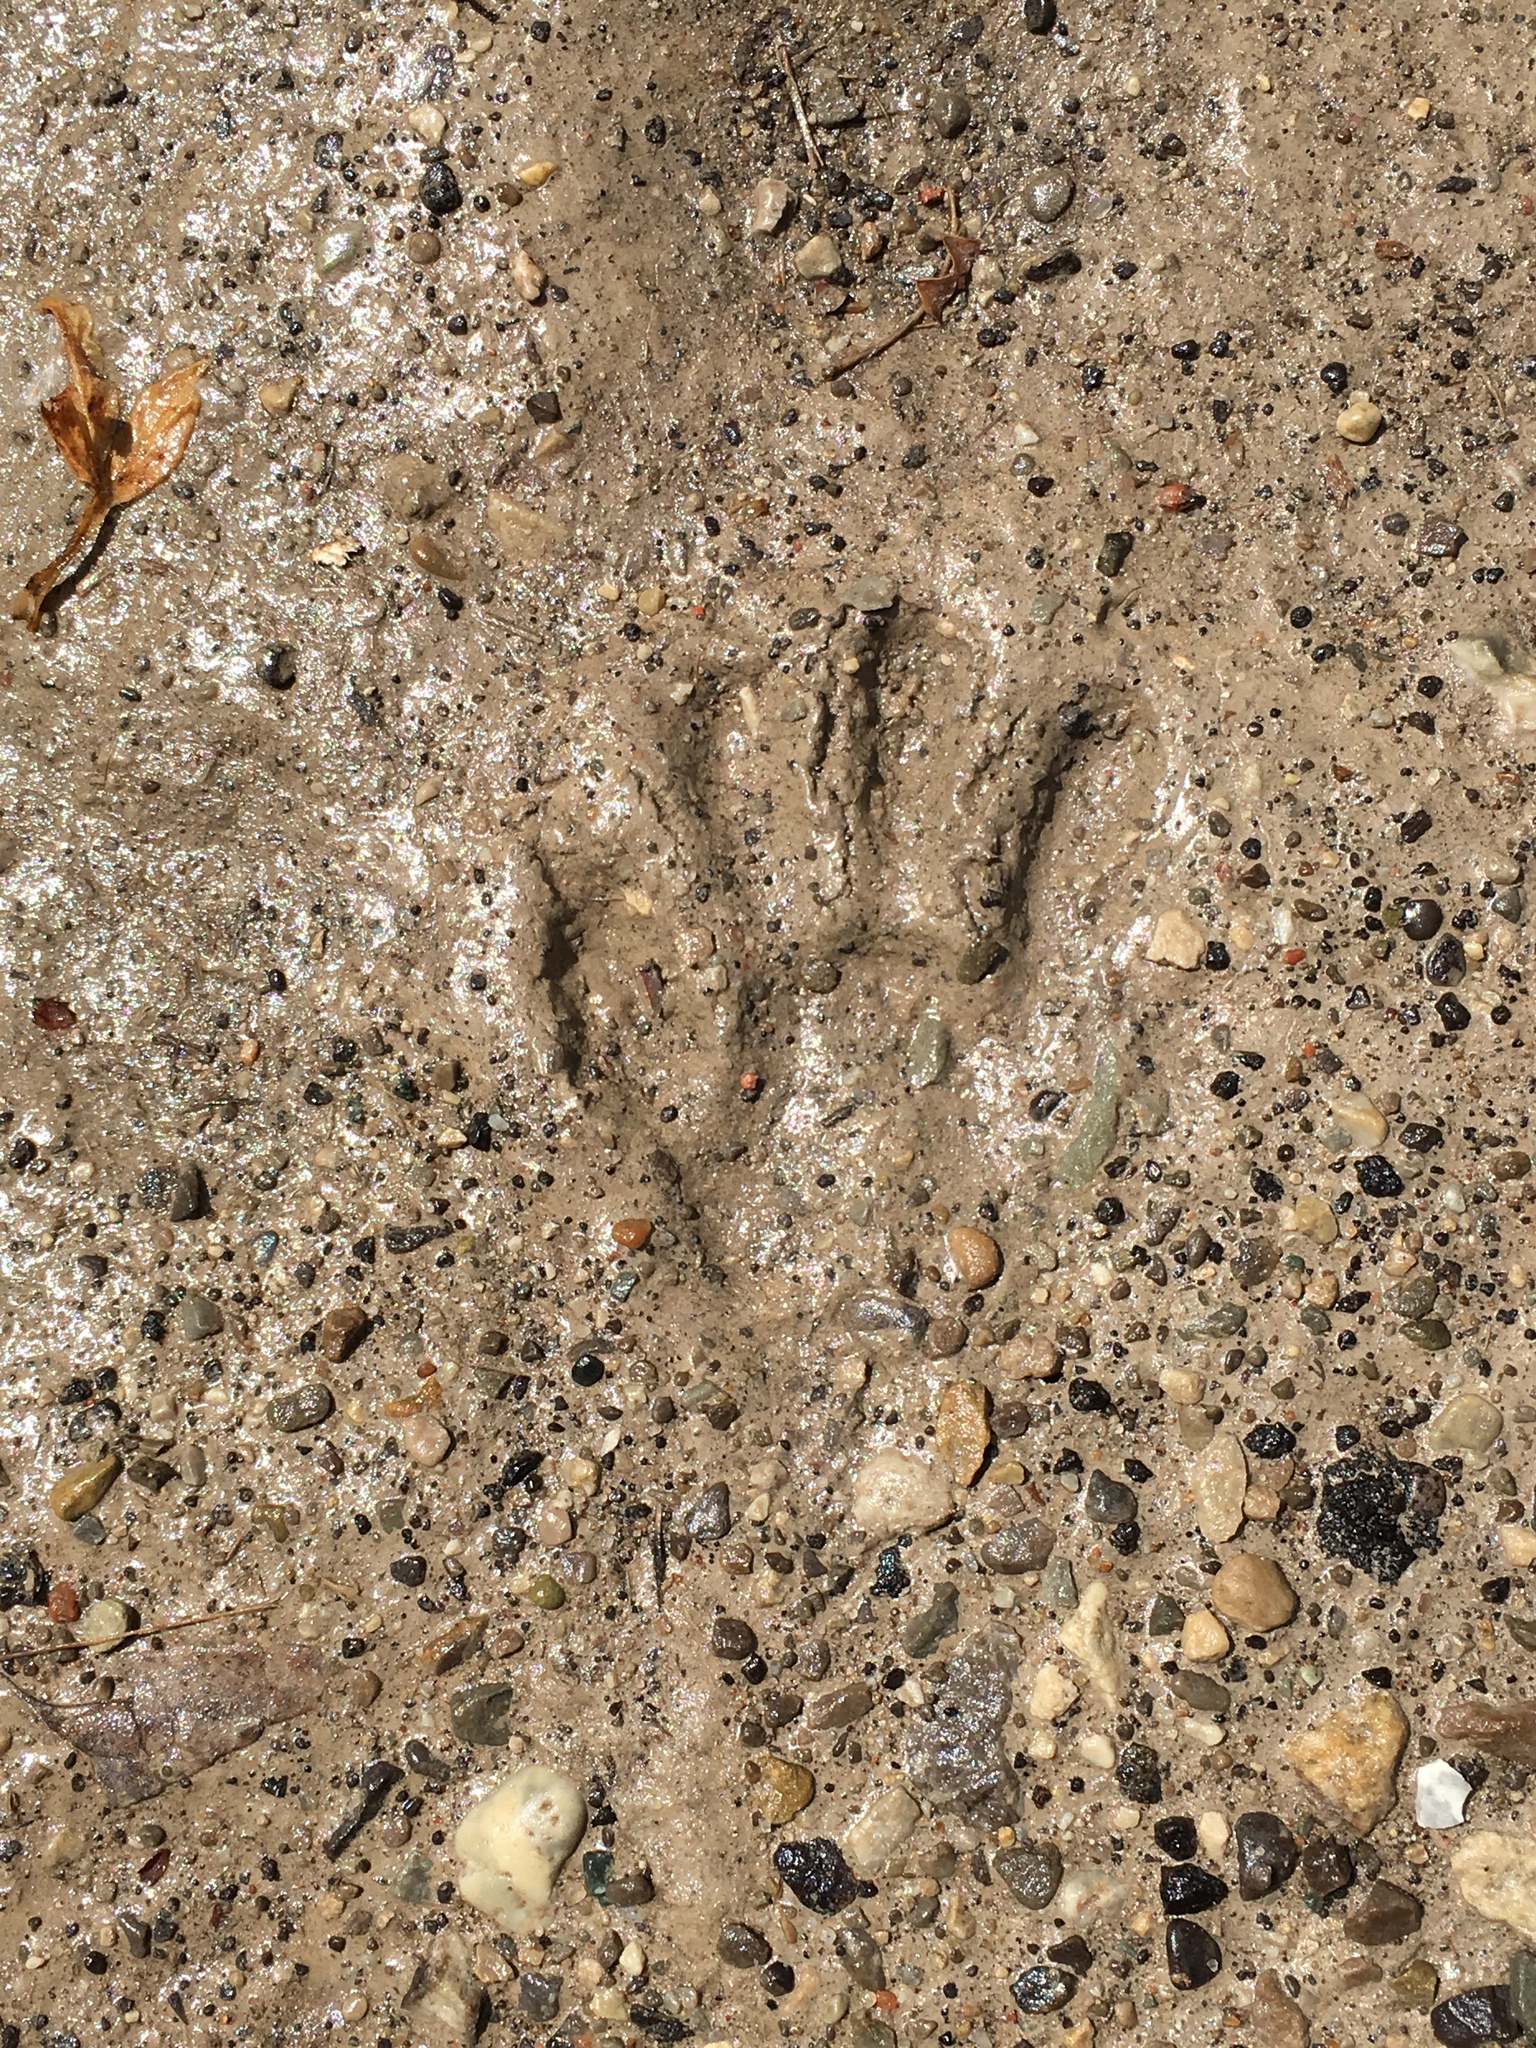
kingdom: Animalia
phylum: Chordata
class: Mammalia
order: Carnivora
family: Procyonidae
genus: Procyon
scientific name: Procyon lotor
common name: Raccoon
